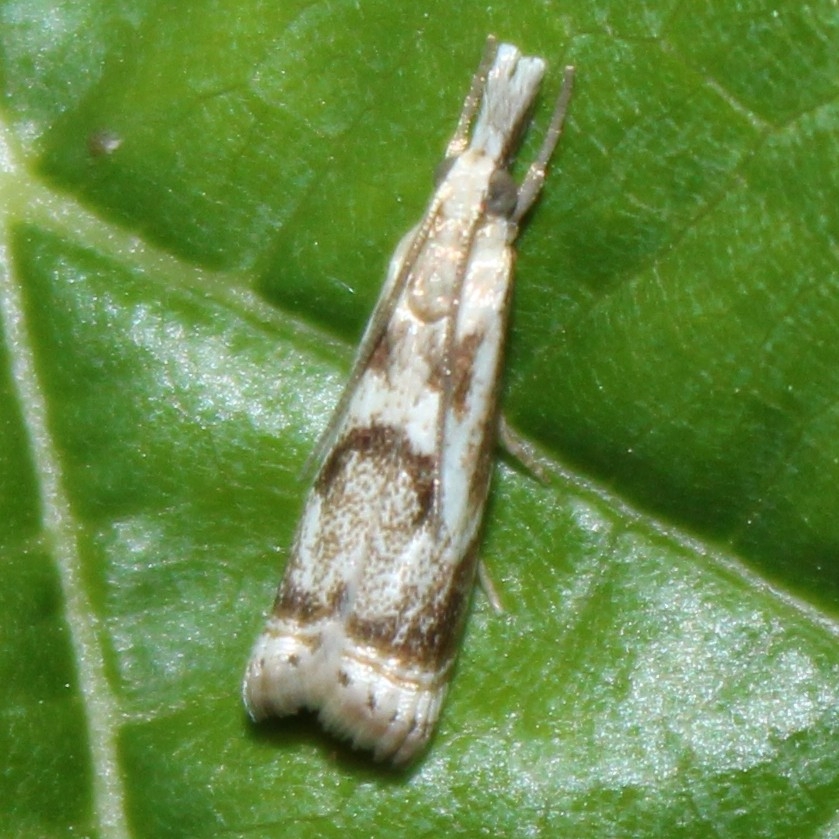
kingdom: Animalia
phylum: Arthropoda
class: Insecta
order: Lepidoptera
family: Crambidae
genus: Microcrambus
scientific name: Microcrambus elegans
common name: Elegant grass-veneer
